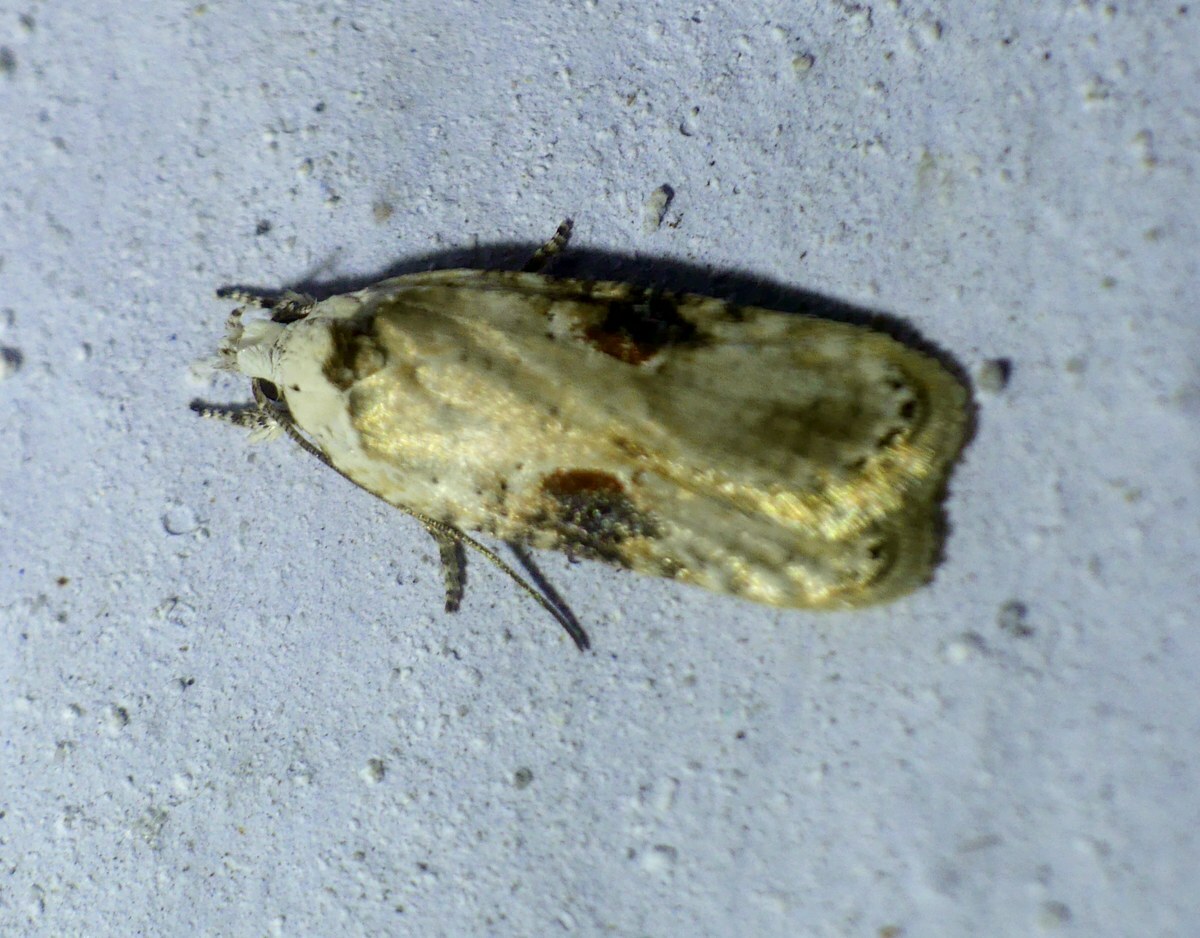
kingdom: Animalia
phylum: Arthropoda
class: Insecta
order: Lepidoptera
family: Depressariidae
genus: Agonopterix
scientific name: Agonopterix alstroemeriana
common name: Moth
